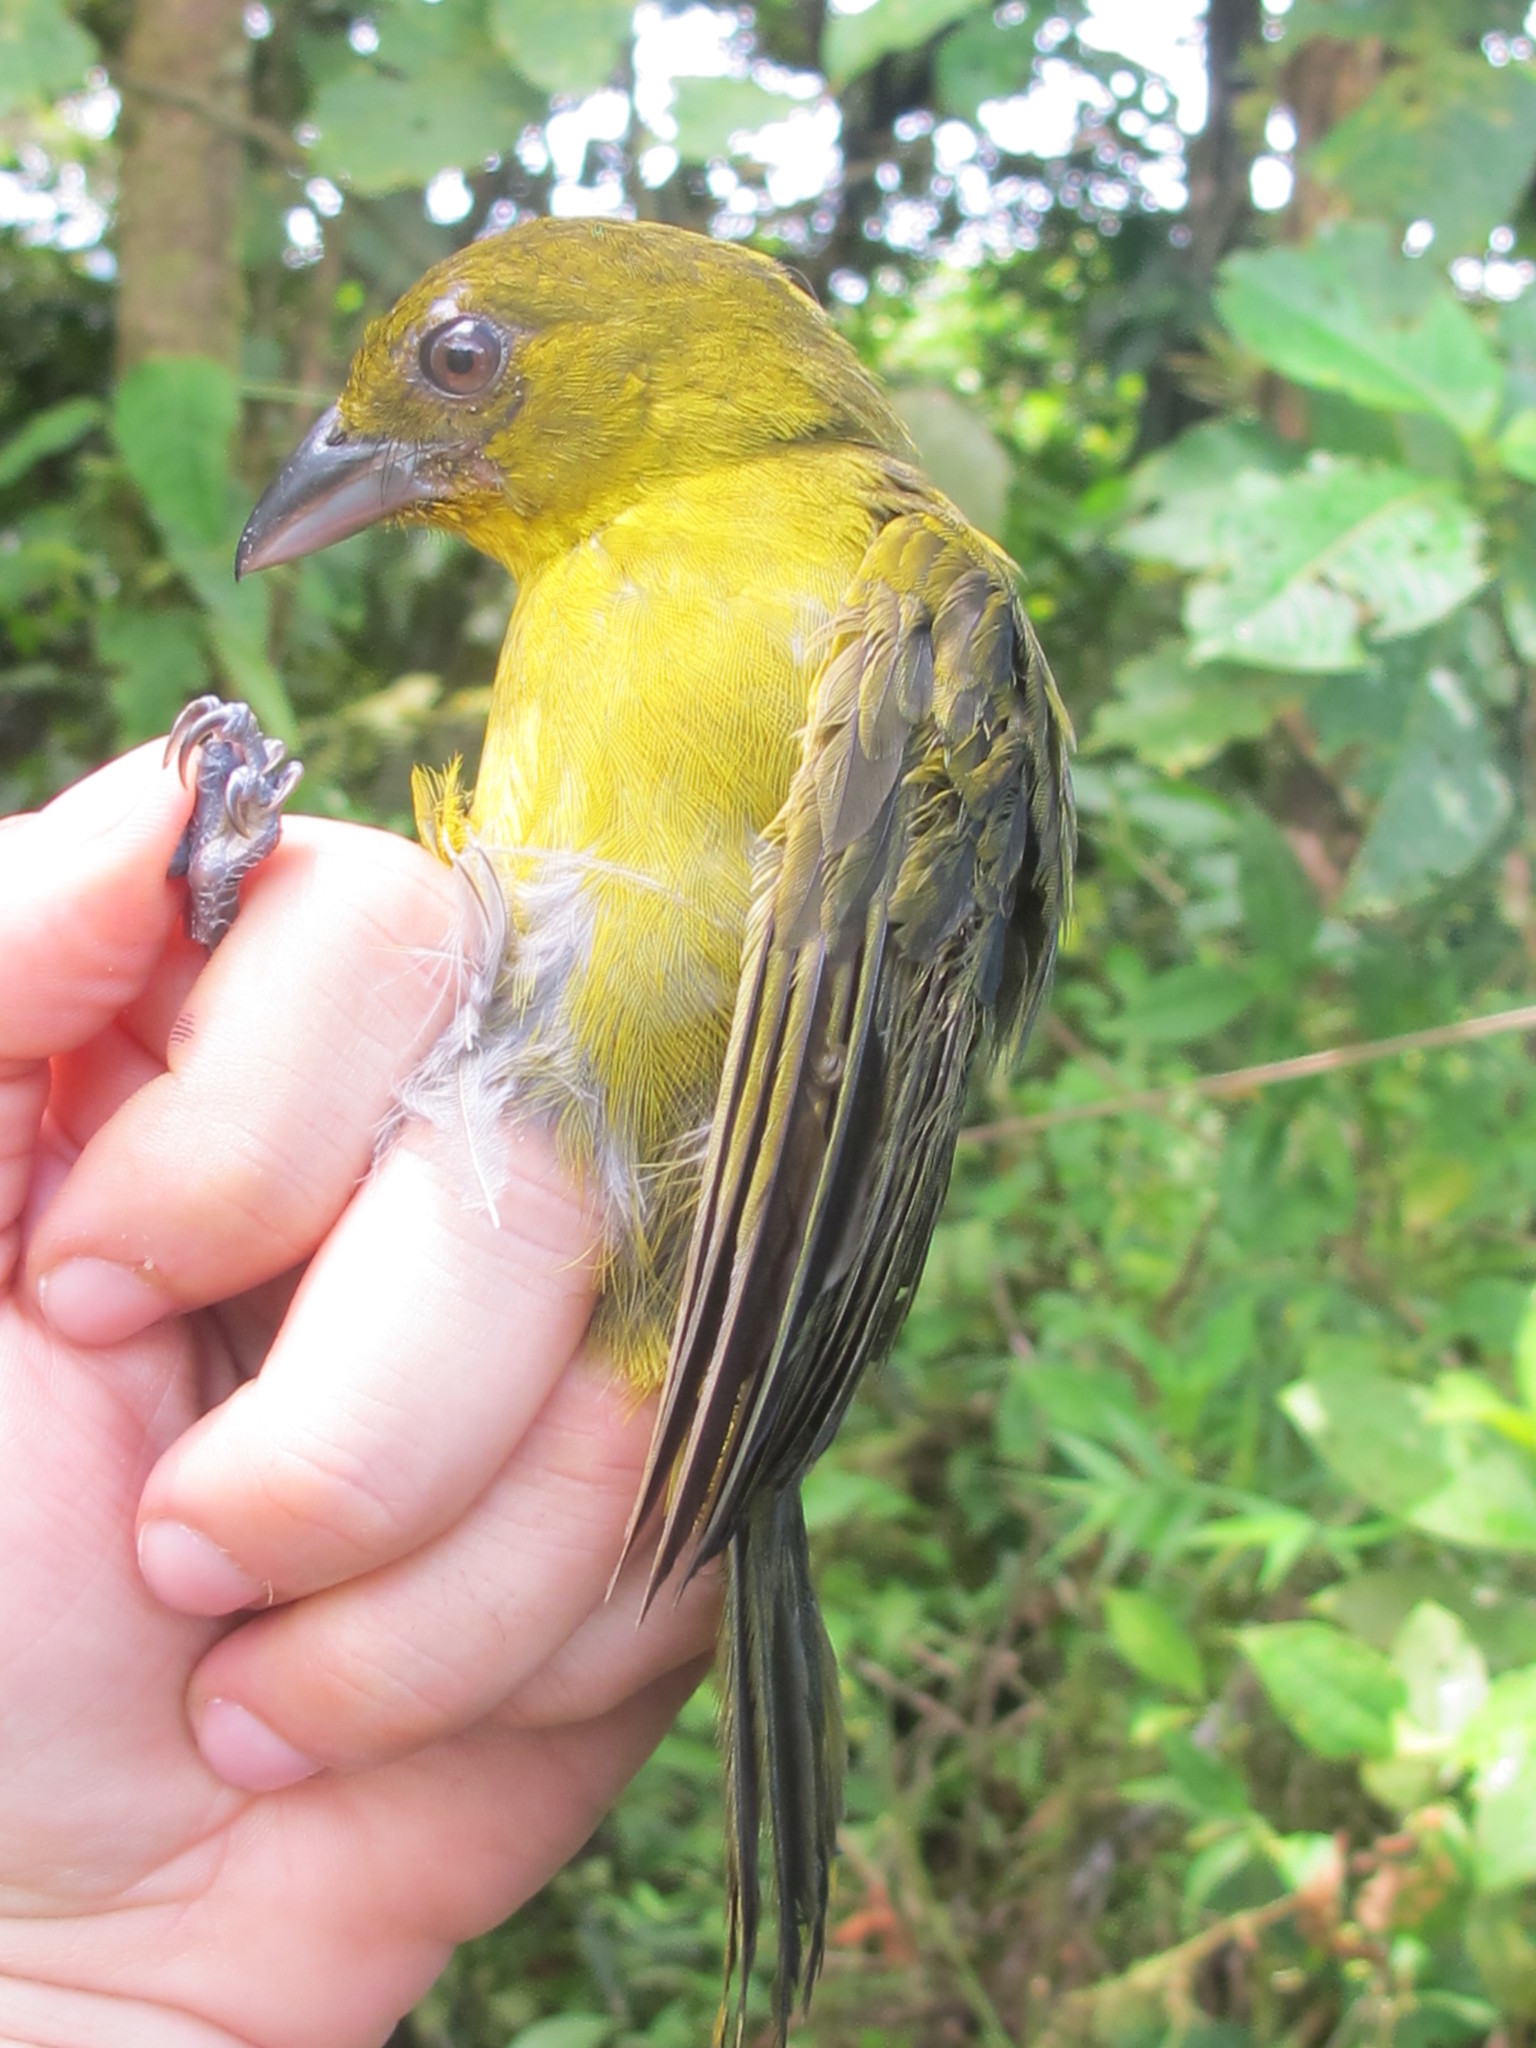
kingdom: Animalia
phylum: Chordata
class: Aves
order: Passeriformes
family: Cardinalidae
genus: Chlorothraupis
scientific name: Chlorothraupis carmioli
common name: Carmiol's tanager
